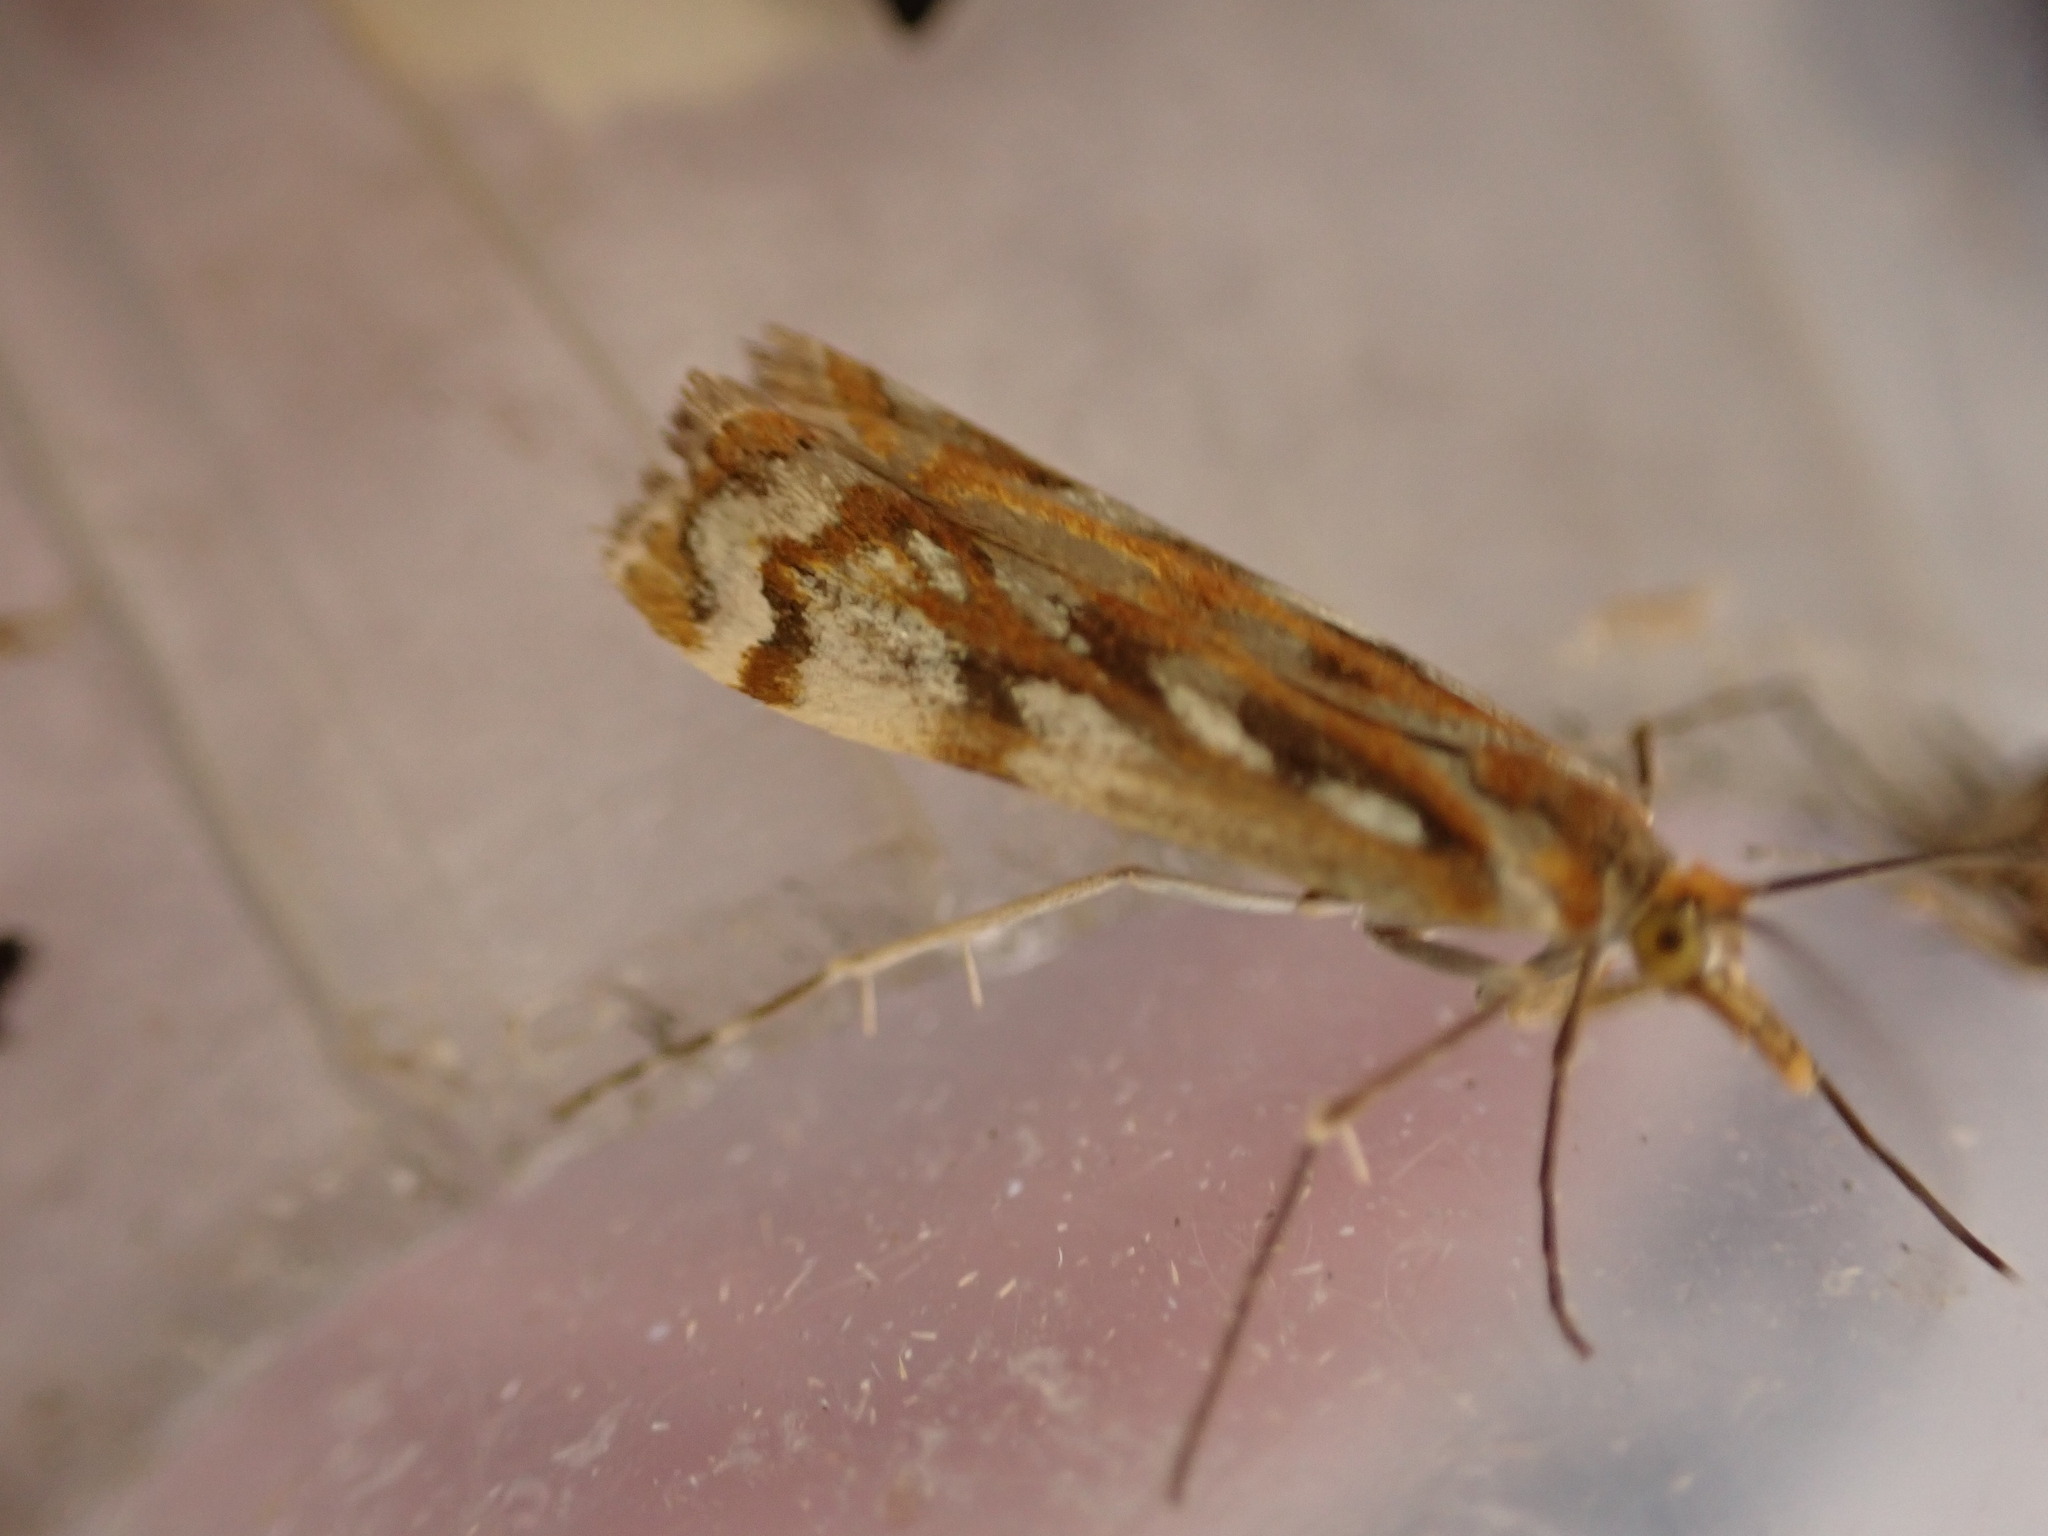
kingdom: Animalia
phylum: Arthropoda
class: Insecta
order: Lepidoptera
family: Crambidae
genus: Orocrambus
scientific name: Orocrambus xanthogrammus
